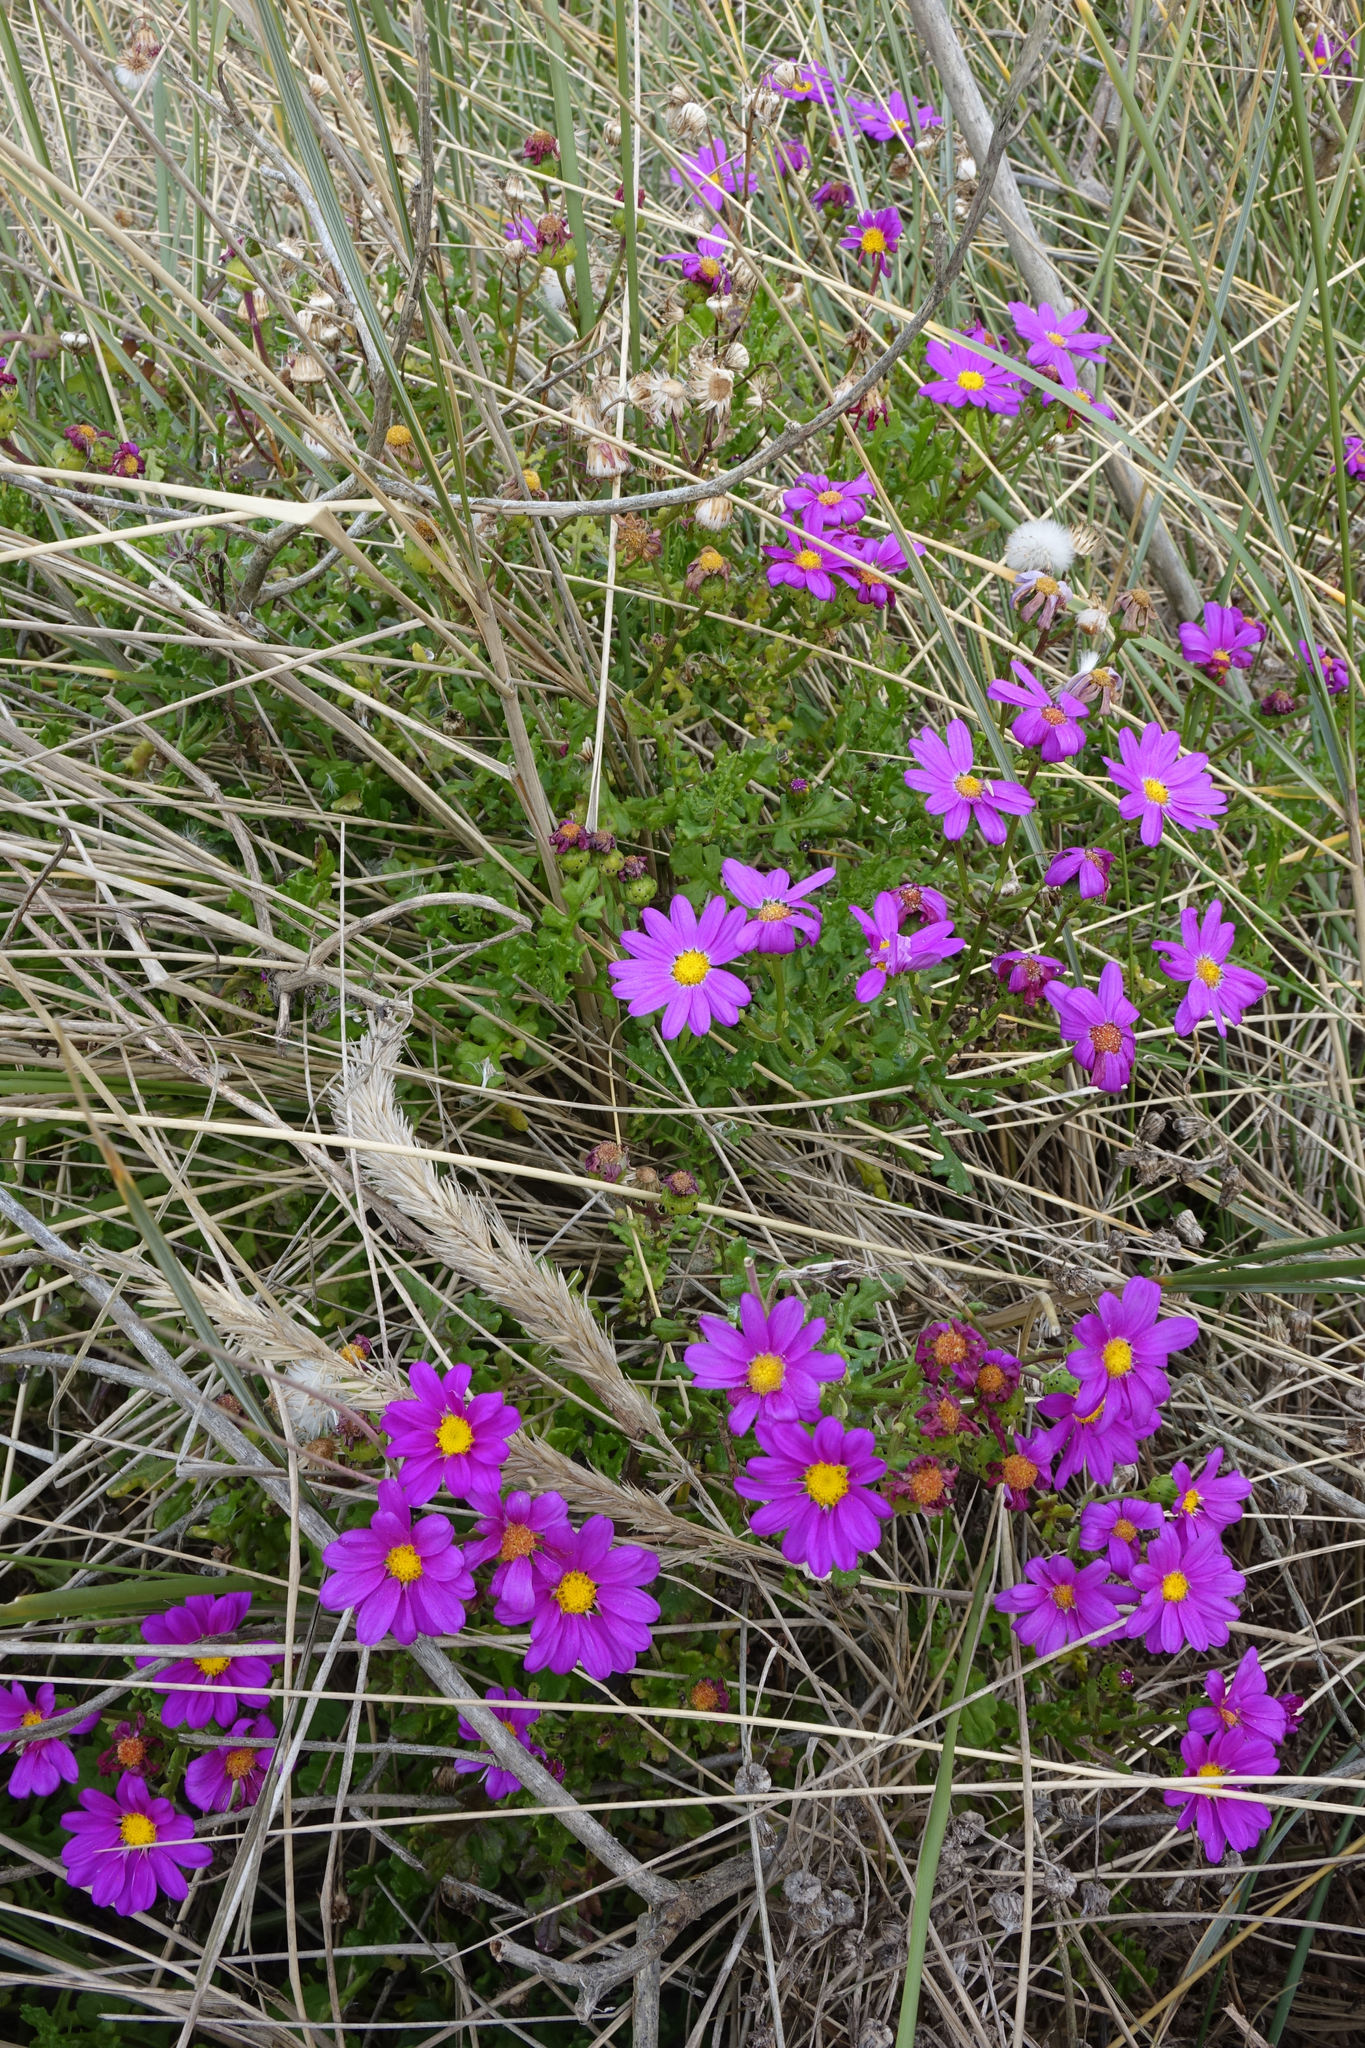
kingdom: Plantae
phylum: Tracheophyta
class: Magnoliopsida
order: Asterales
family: Asteraceae
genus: Senecio
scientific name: Senecio elegans
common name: Purple groundsel
